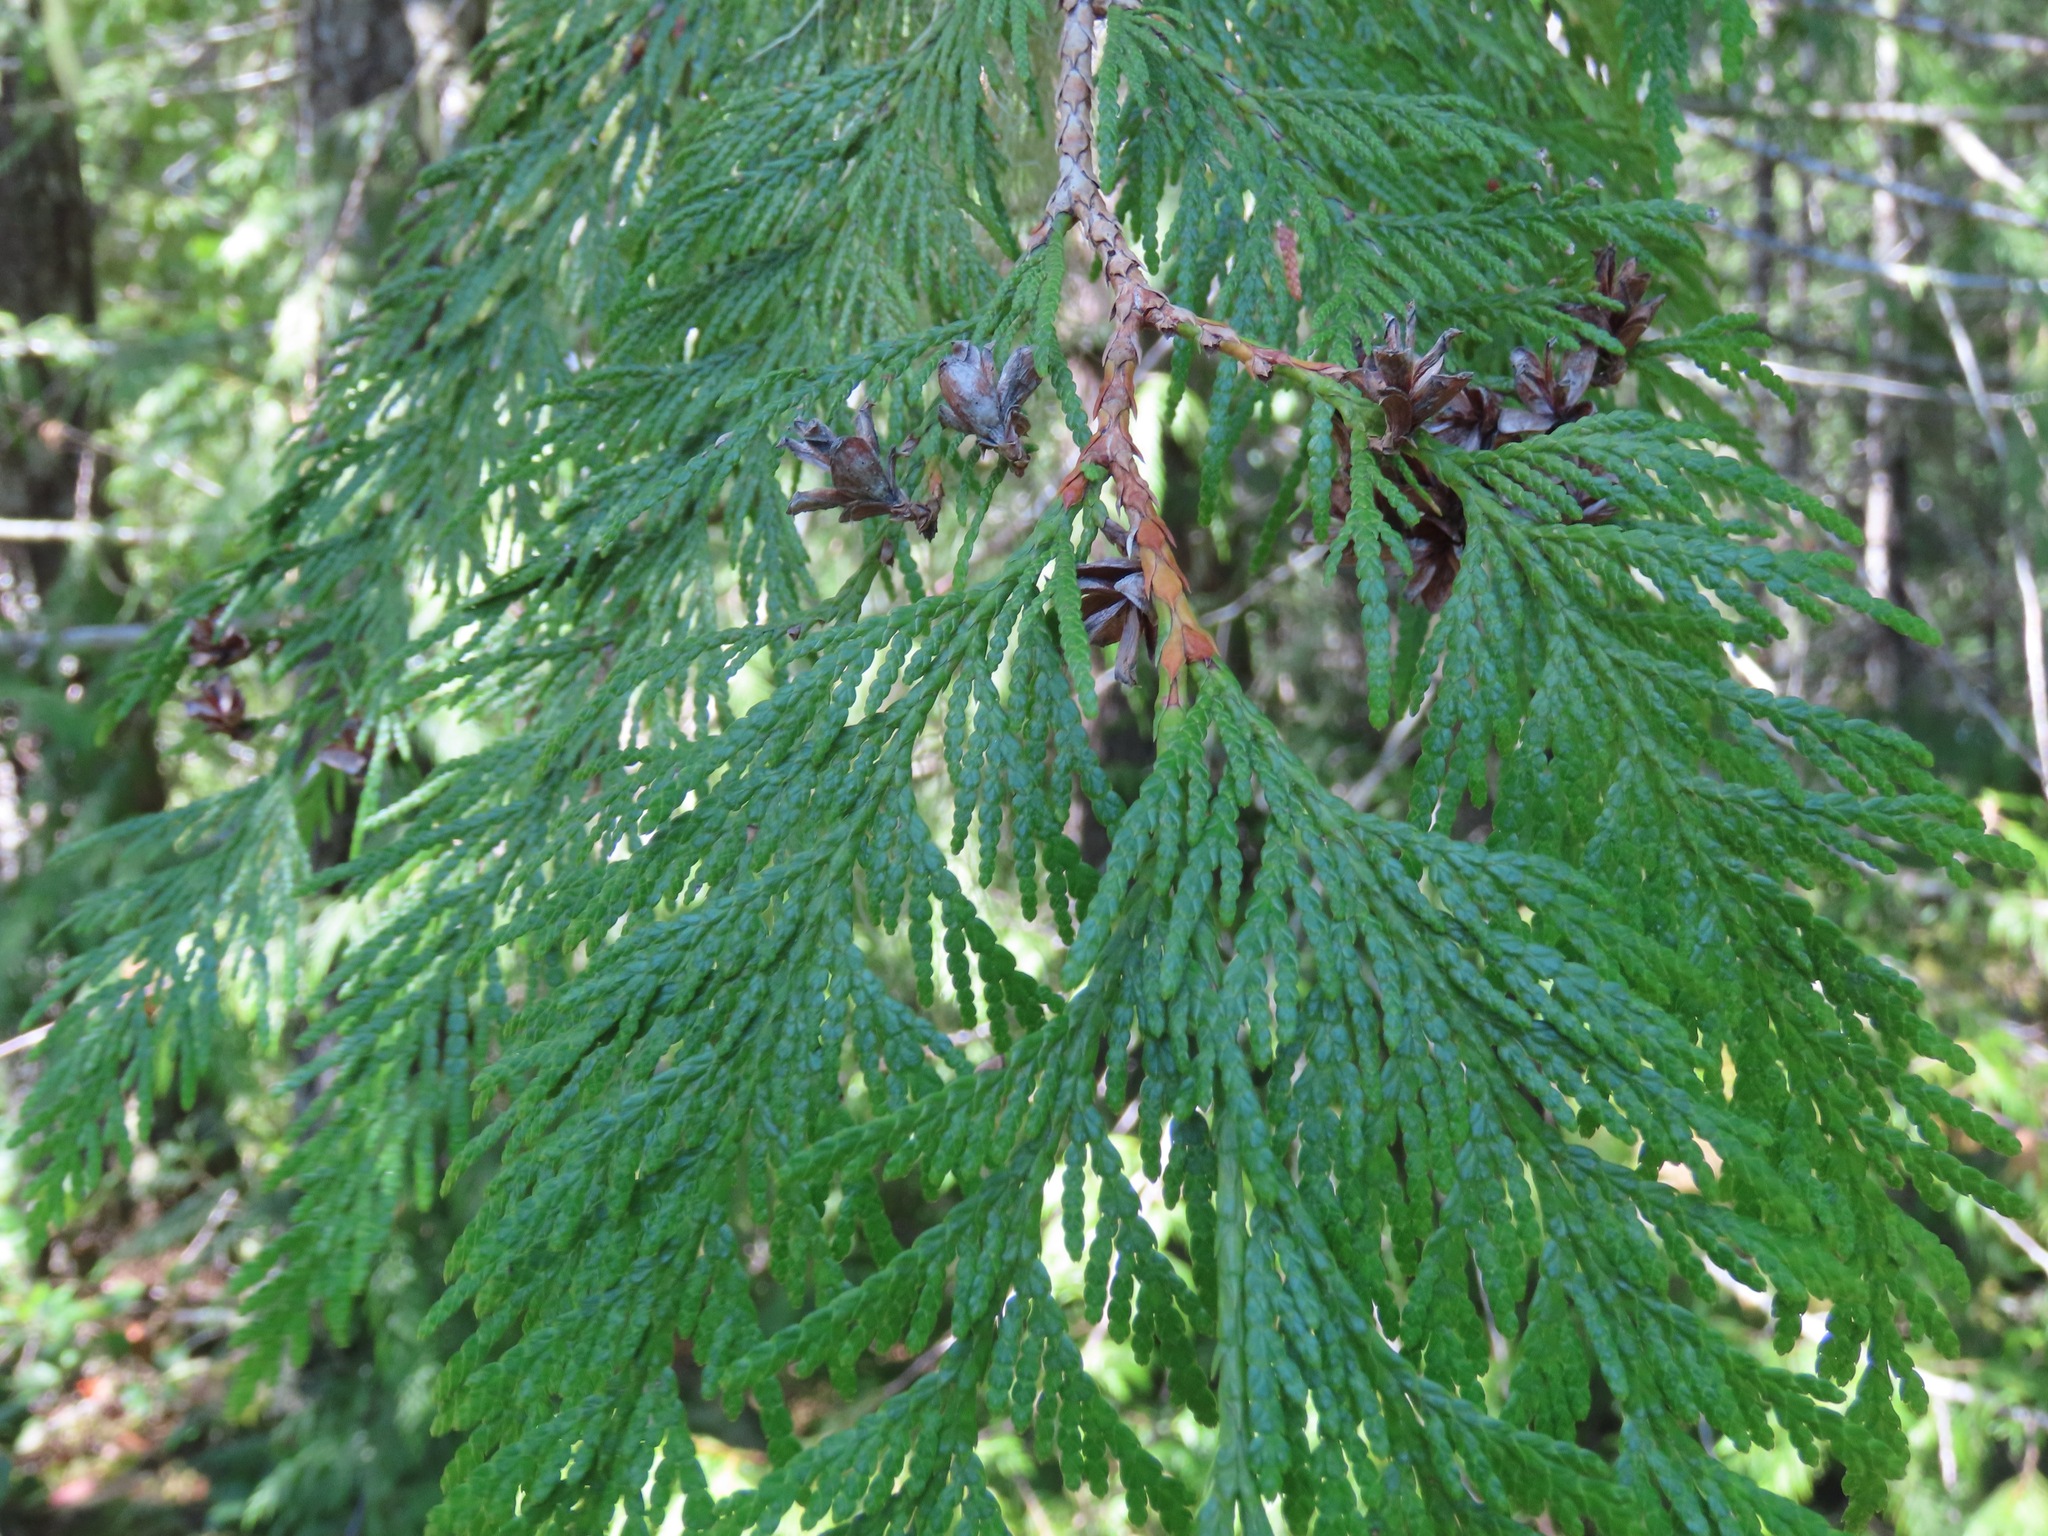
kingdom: Plantae
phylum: Tracheophyta
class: Pinopsida
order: Pinales
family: Cupressaceae
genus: Thuja
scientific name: Thuja plicata
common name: Western red-cedar
